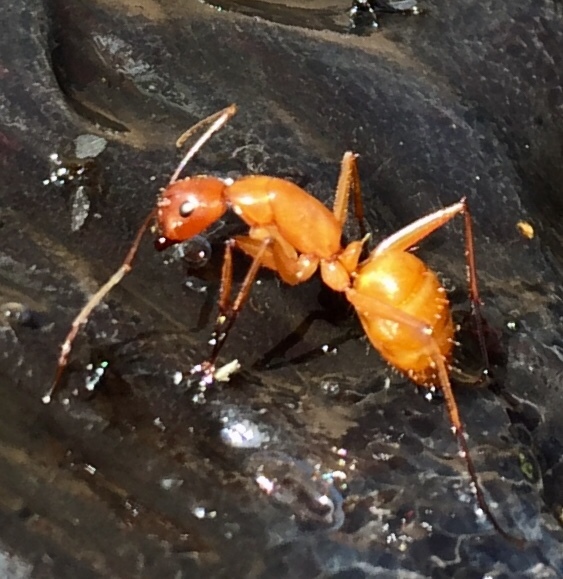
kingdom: Animalia
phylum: Arthropoda
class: Insecta
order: Hymenoptera
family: Formicidae
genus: Camponotus
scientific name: Camponotus castaneus
